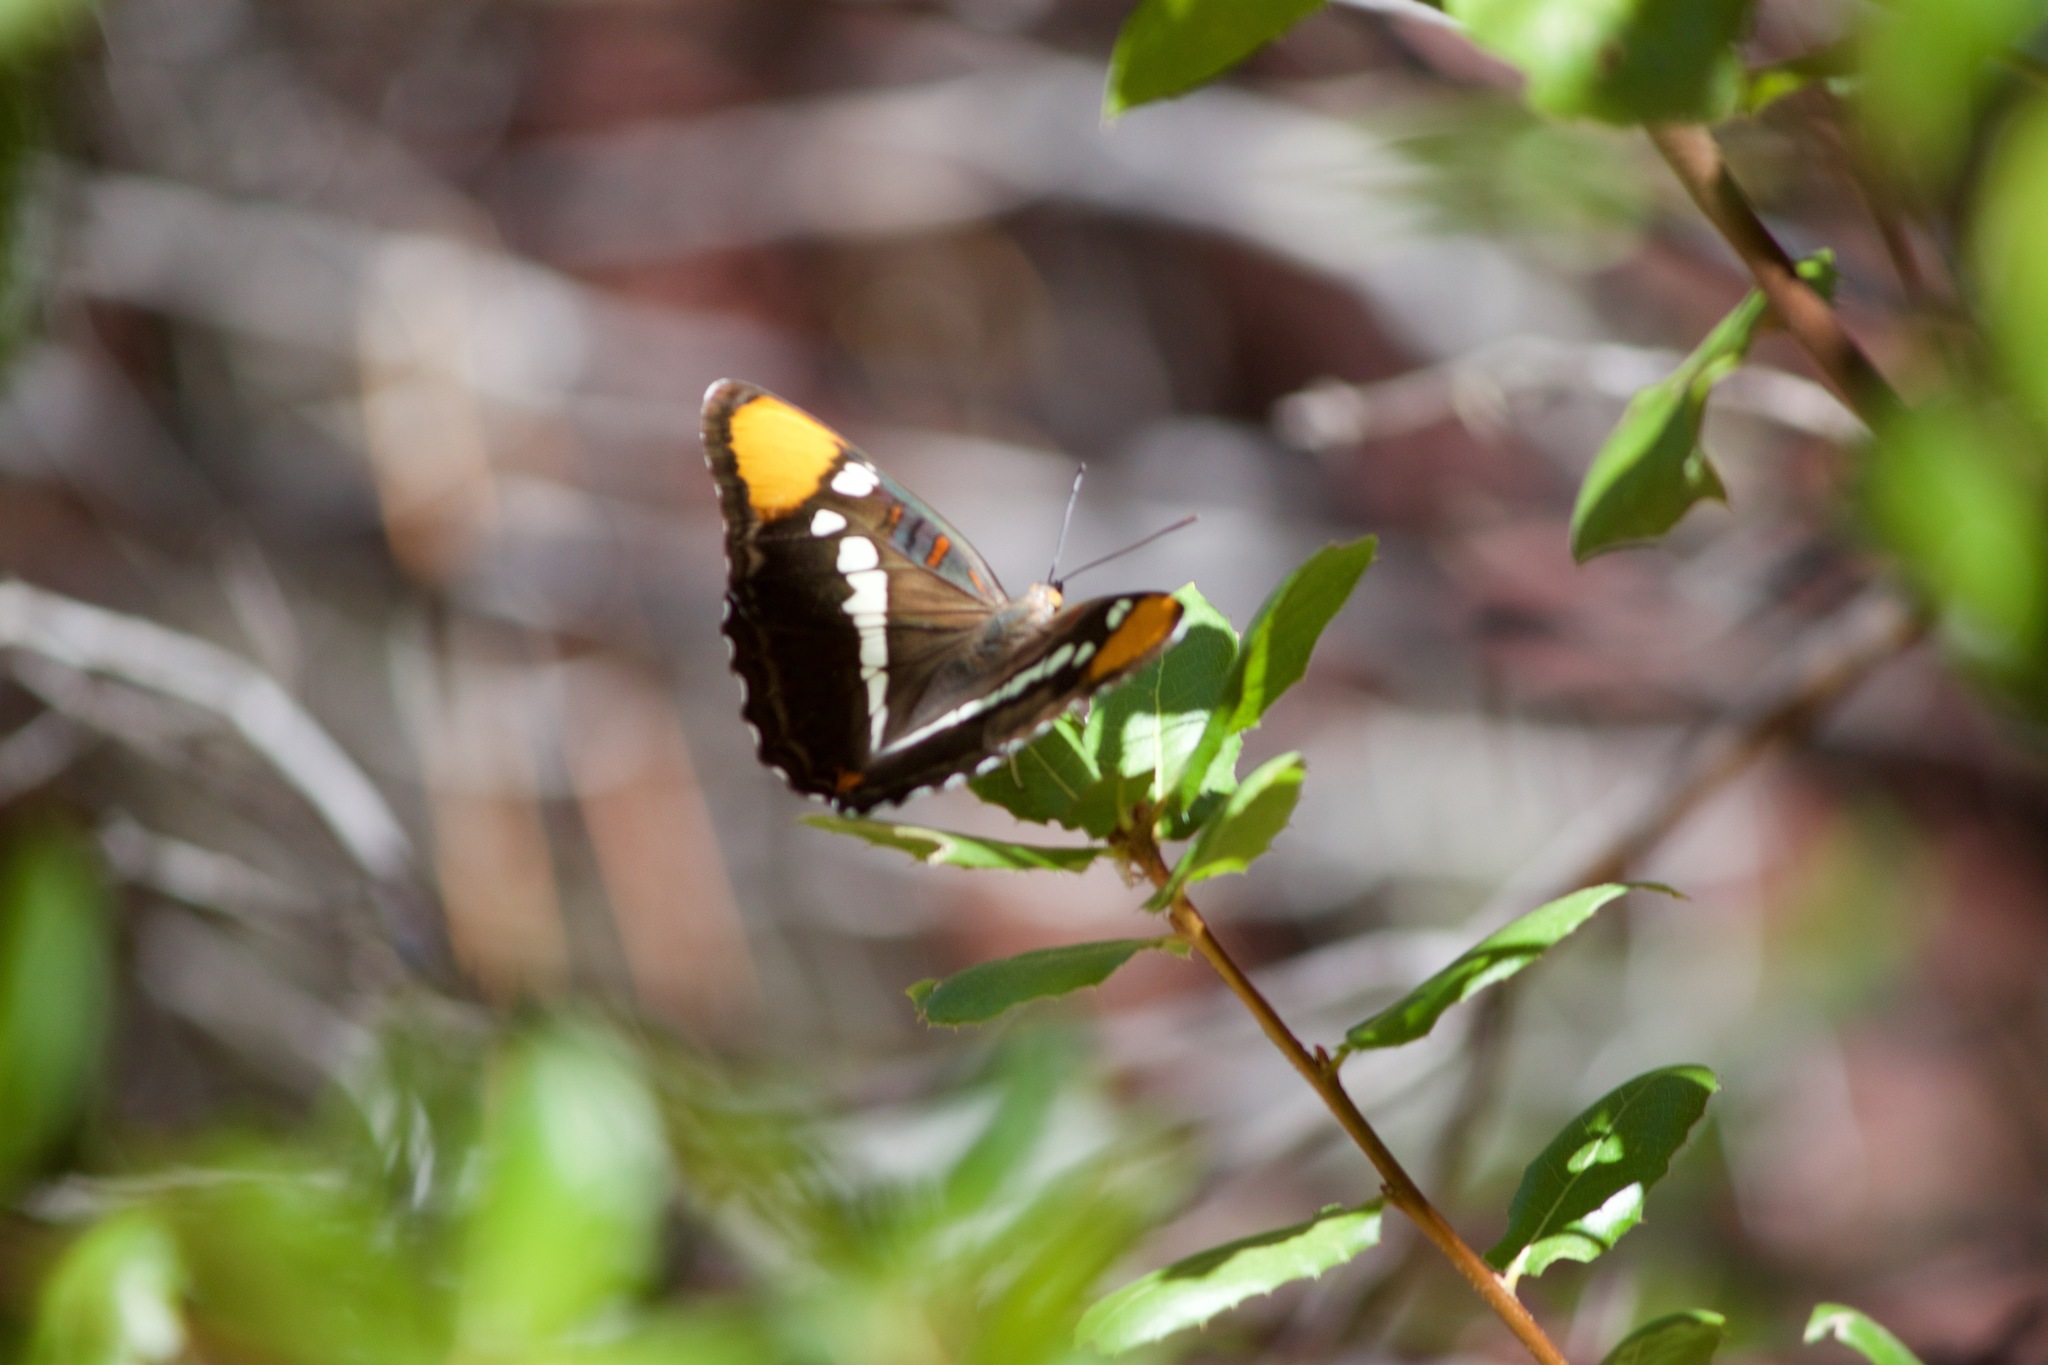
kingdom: Animalia
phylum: Arthropoda
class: Insecta
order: Lepidoptera
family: Nymphalidae
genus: Limenitis
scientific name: Limenitis bredowii
